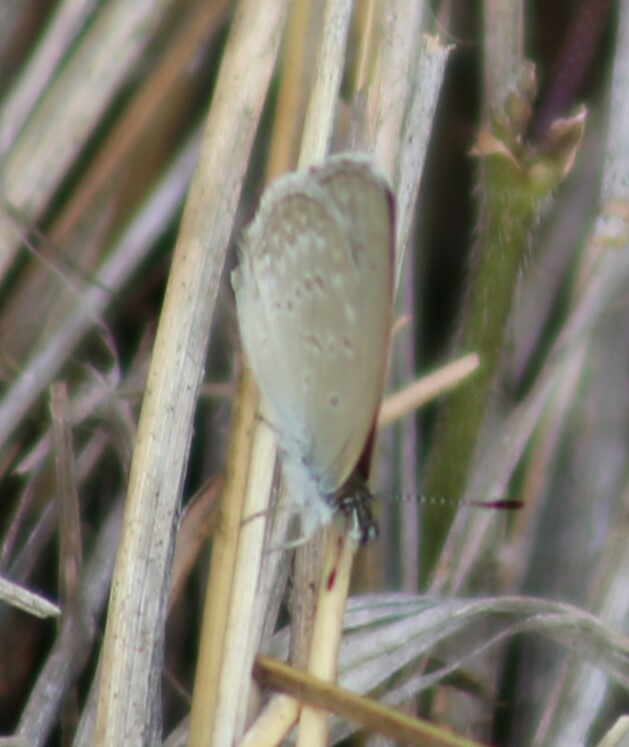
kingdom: Animalia
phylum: Arthropoda
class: Insecta
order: Lepidoptera
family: Lycaenidae
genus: Zizina
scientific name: Zizina labradus
